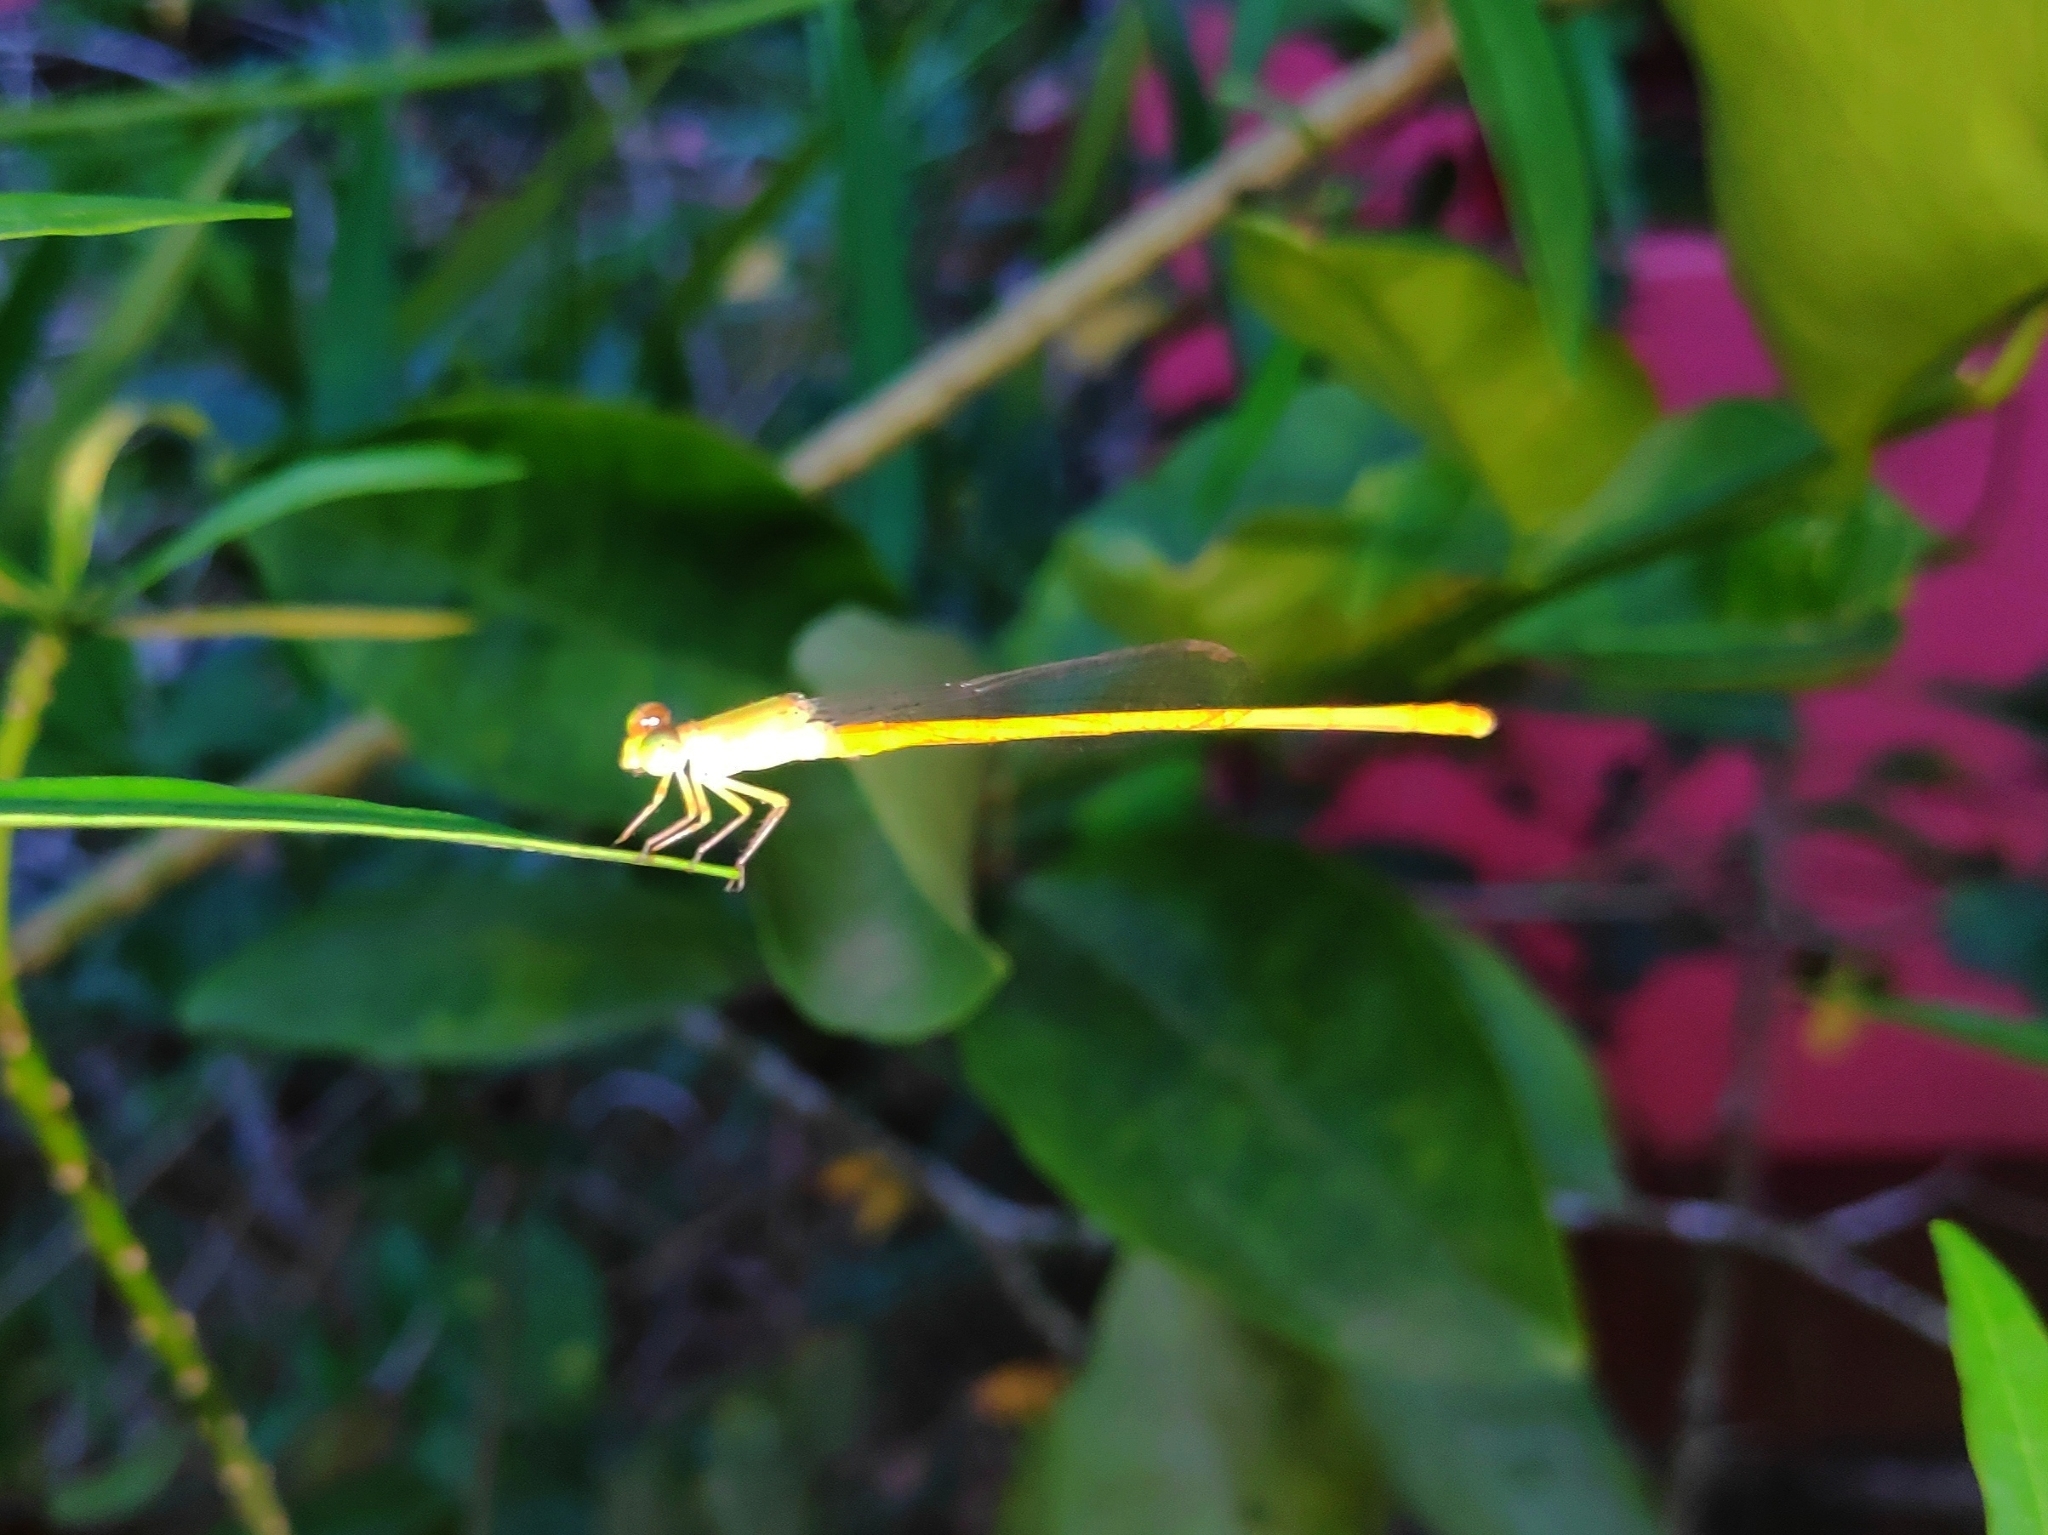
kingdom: Animalia
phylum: Arthropoda
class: Insecta
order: Odonata
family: Coenagrionidae
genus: Ceriagrion
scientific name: Ceriagrion coromandelianum
